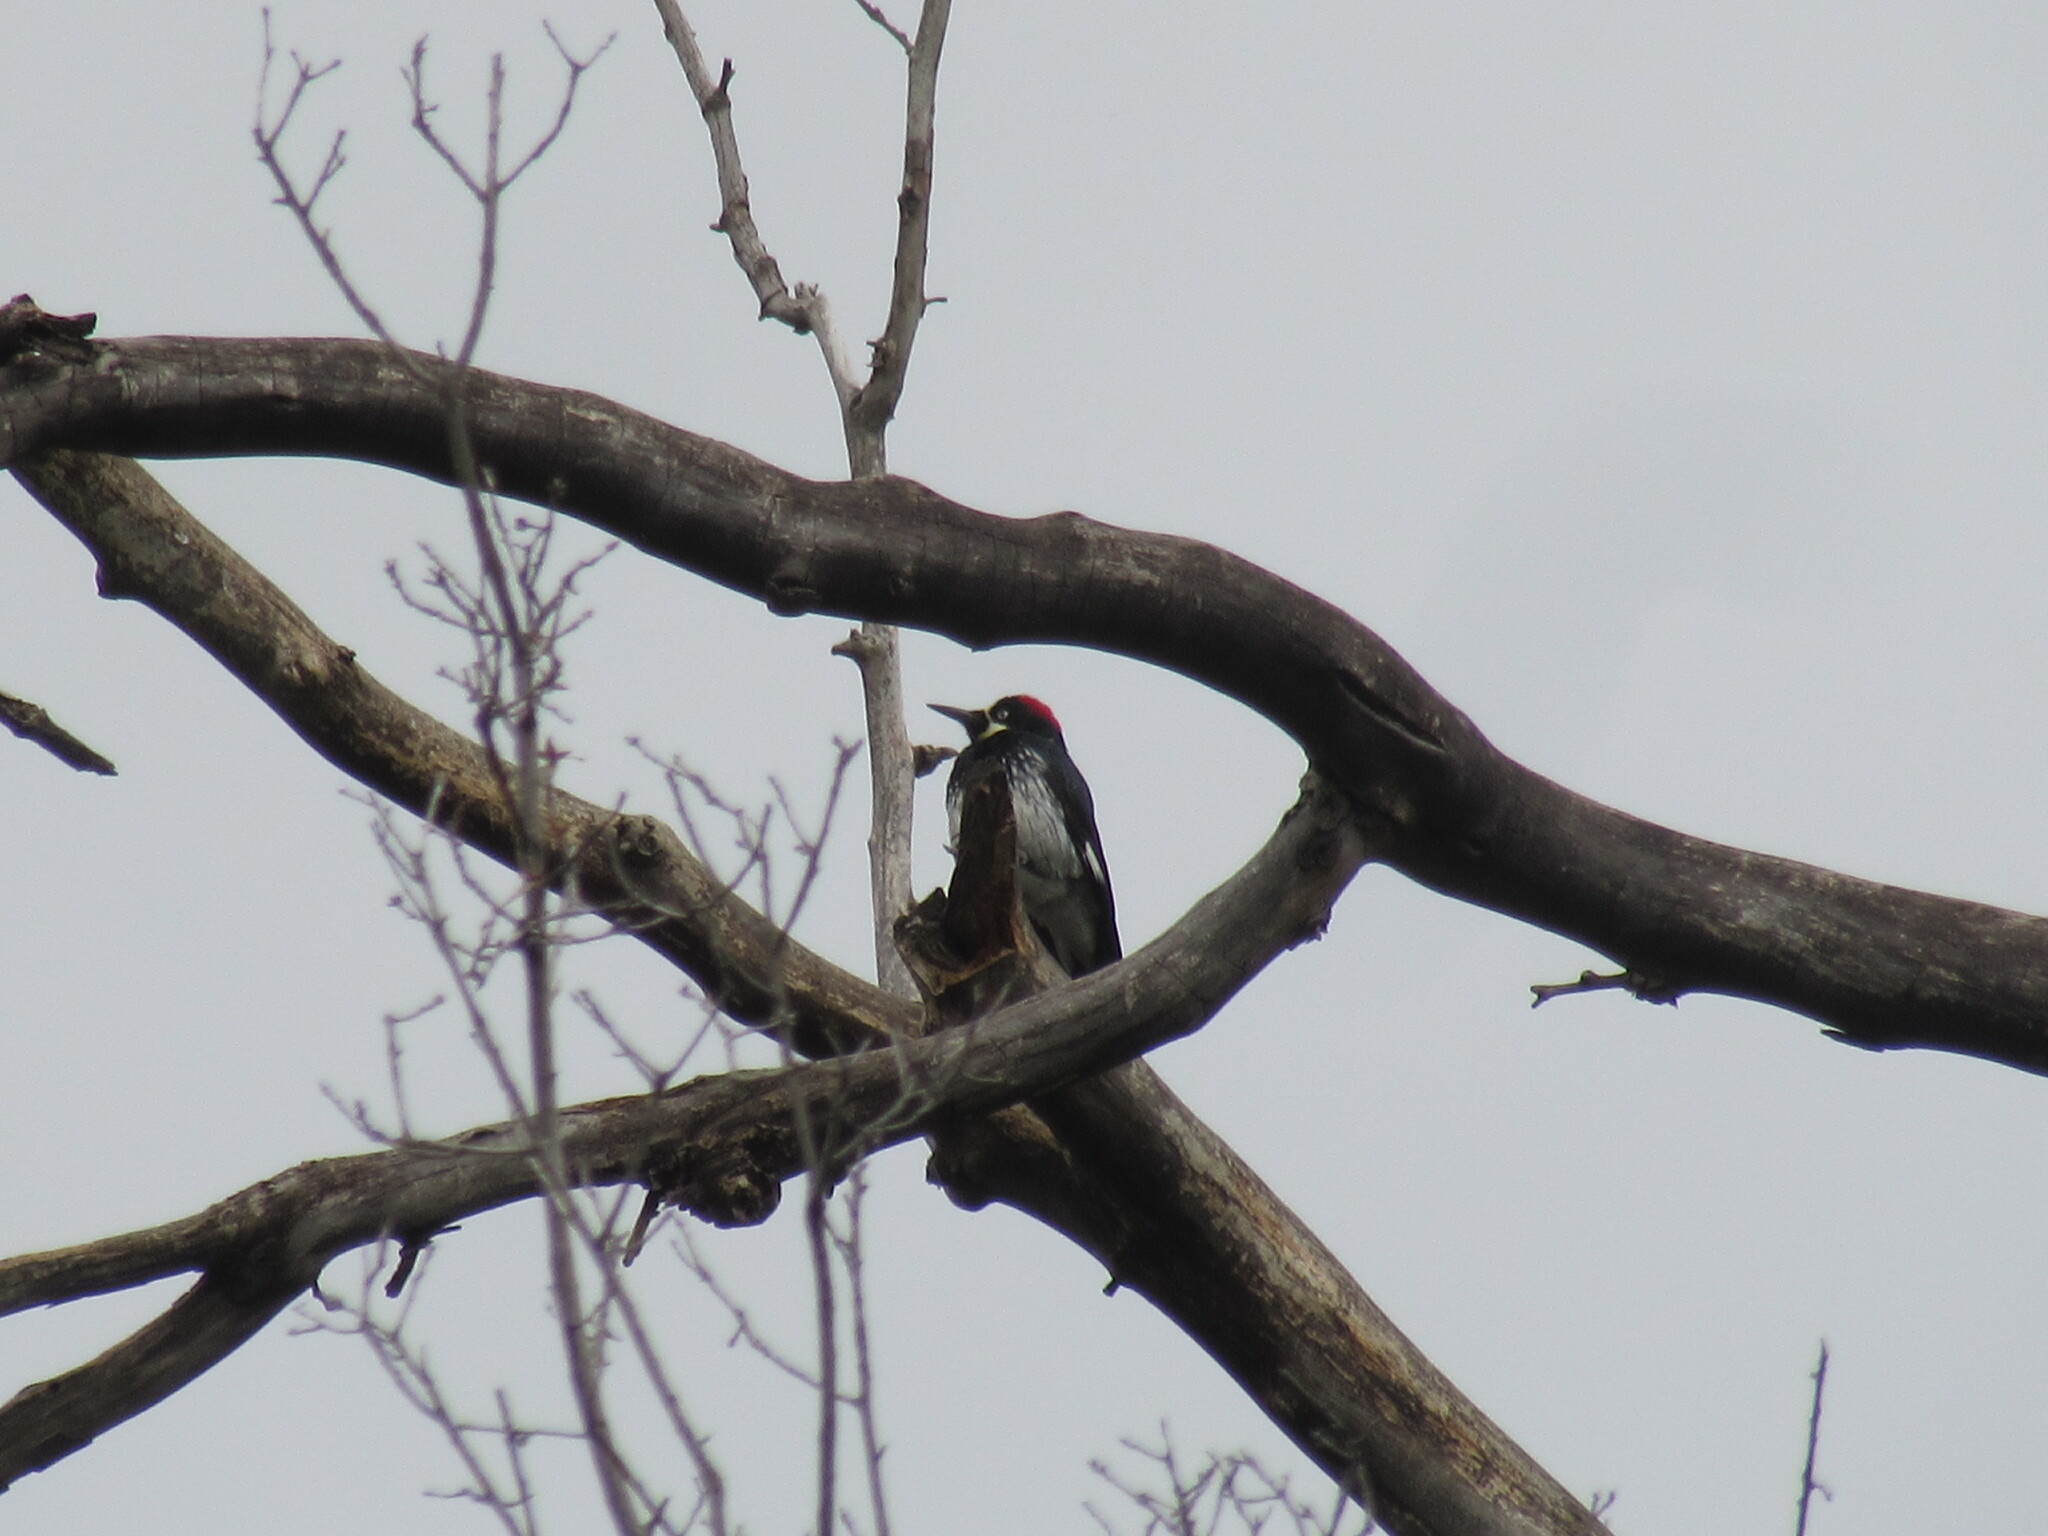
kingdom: Animalia
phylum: Chordata
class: Aves
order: Piciformes
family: Picidae
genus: Melanerpes
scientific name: Melanerpes formicivorus
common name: Acorn woodpecker
